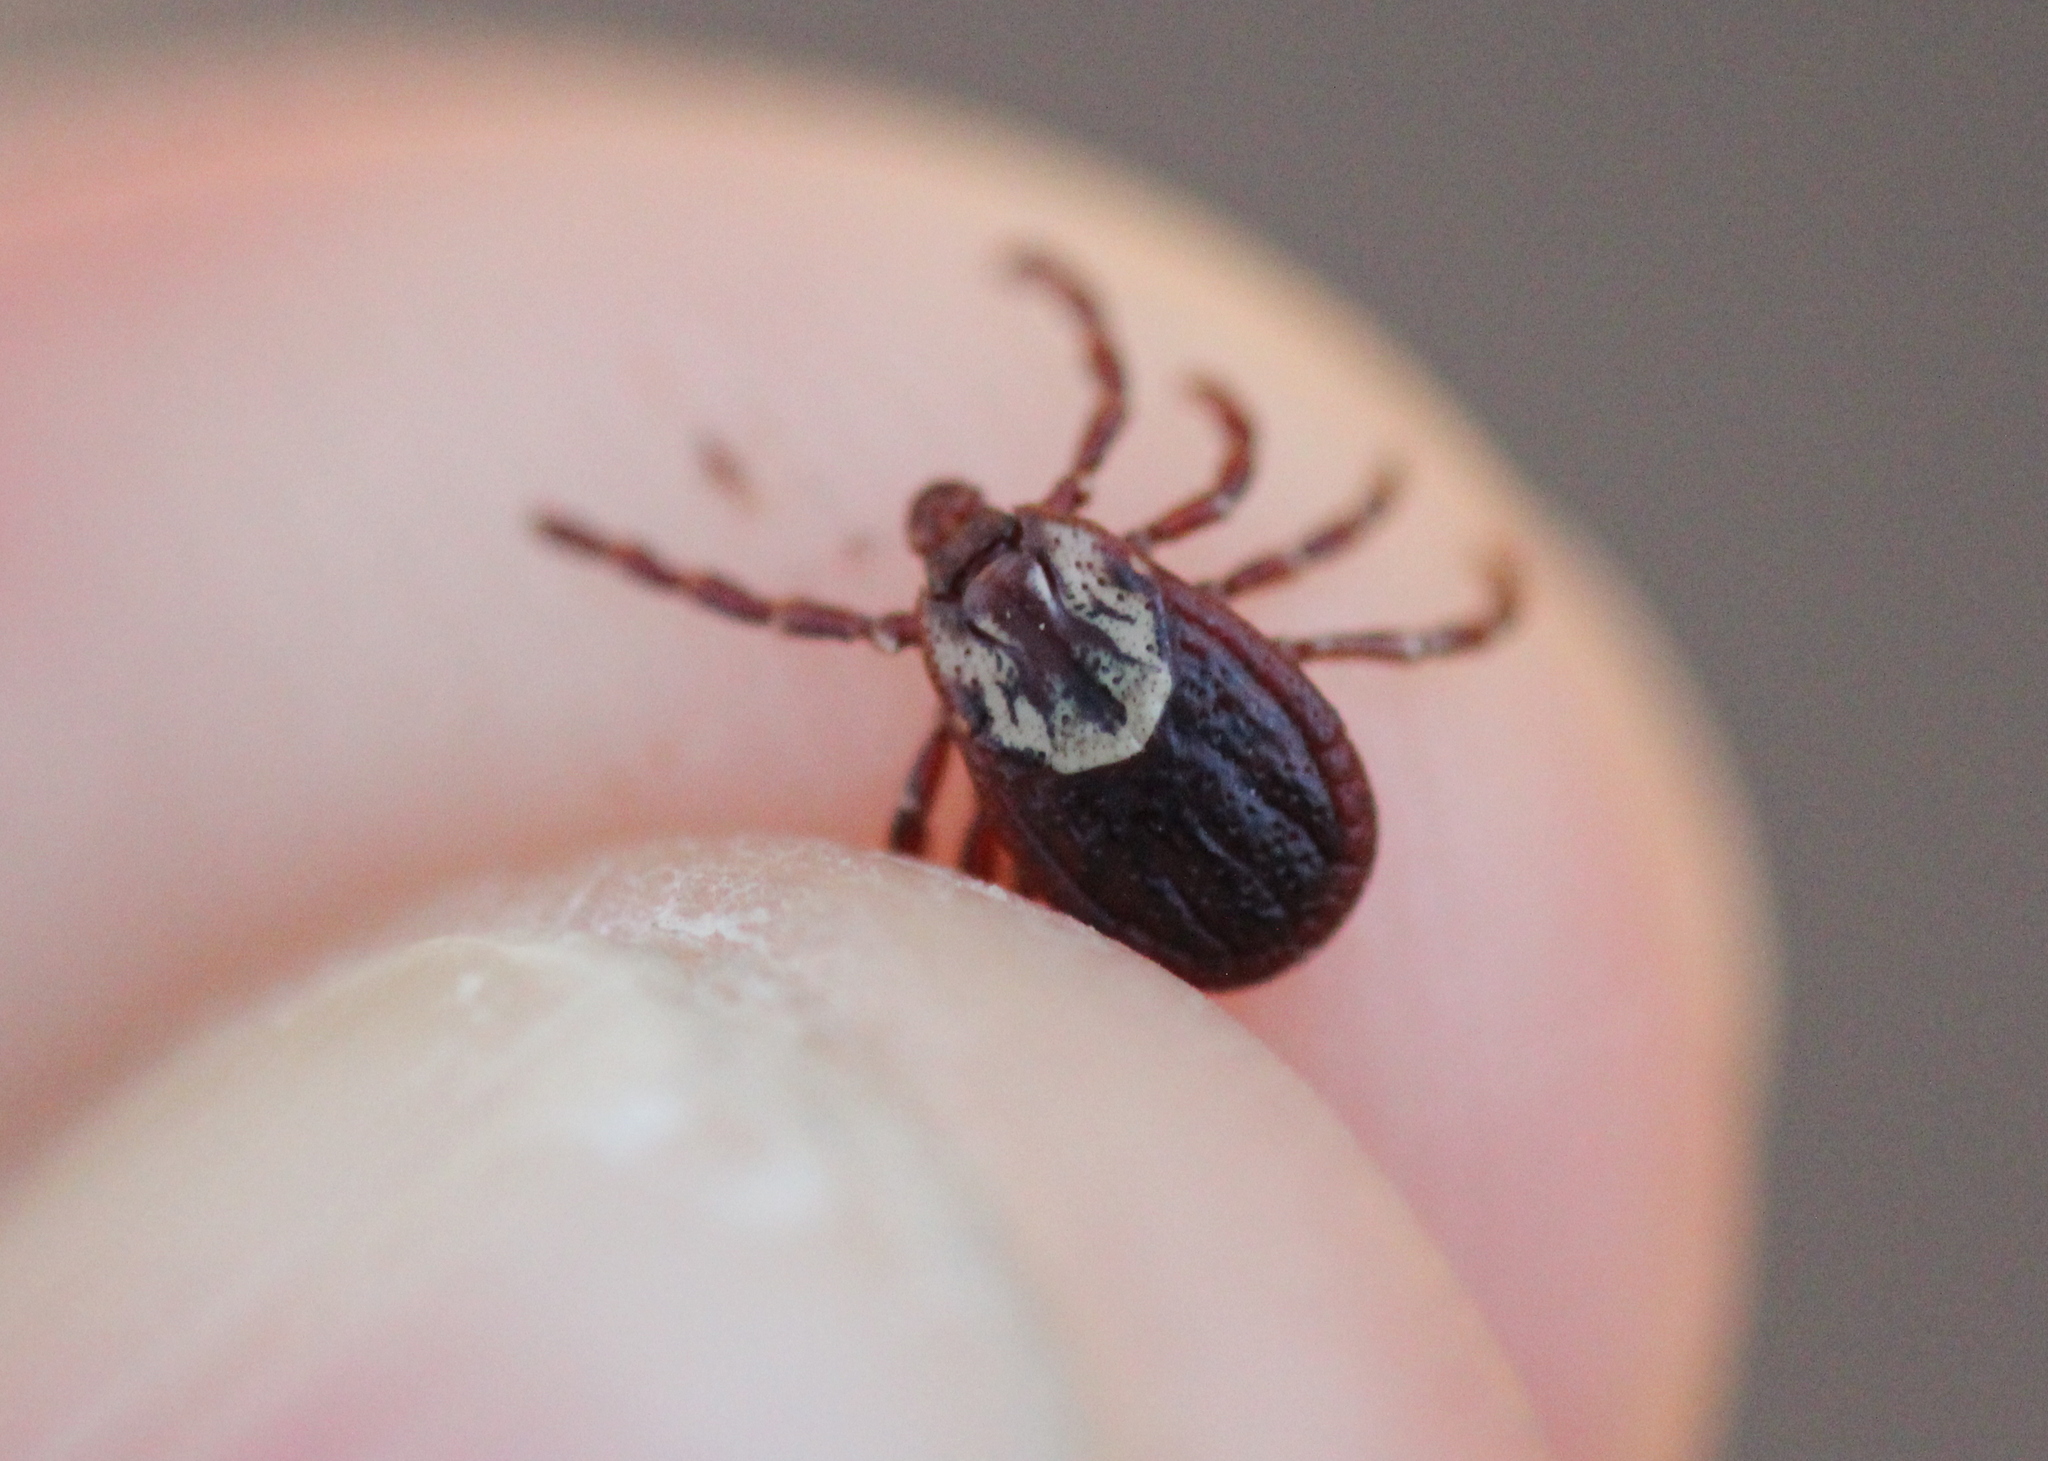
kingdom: Animalia
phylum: Arthropoda
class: Arachnida
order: Ixodida
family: Ixodidae
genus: Dermacentor
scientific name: Dermacentor variabilis
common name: American dog tick
